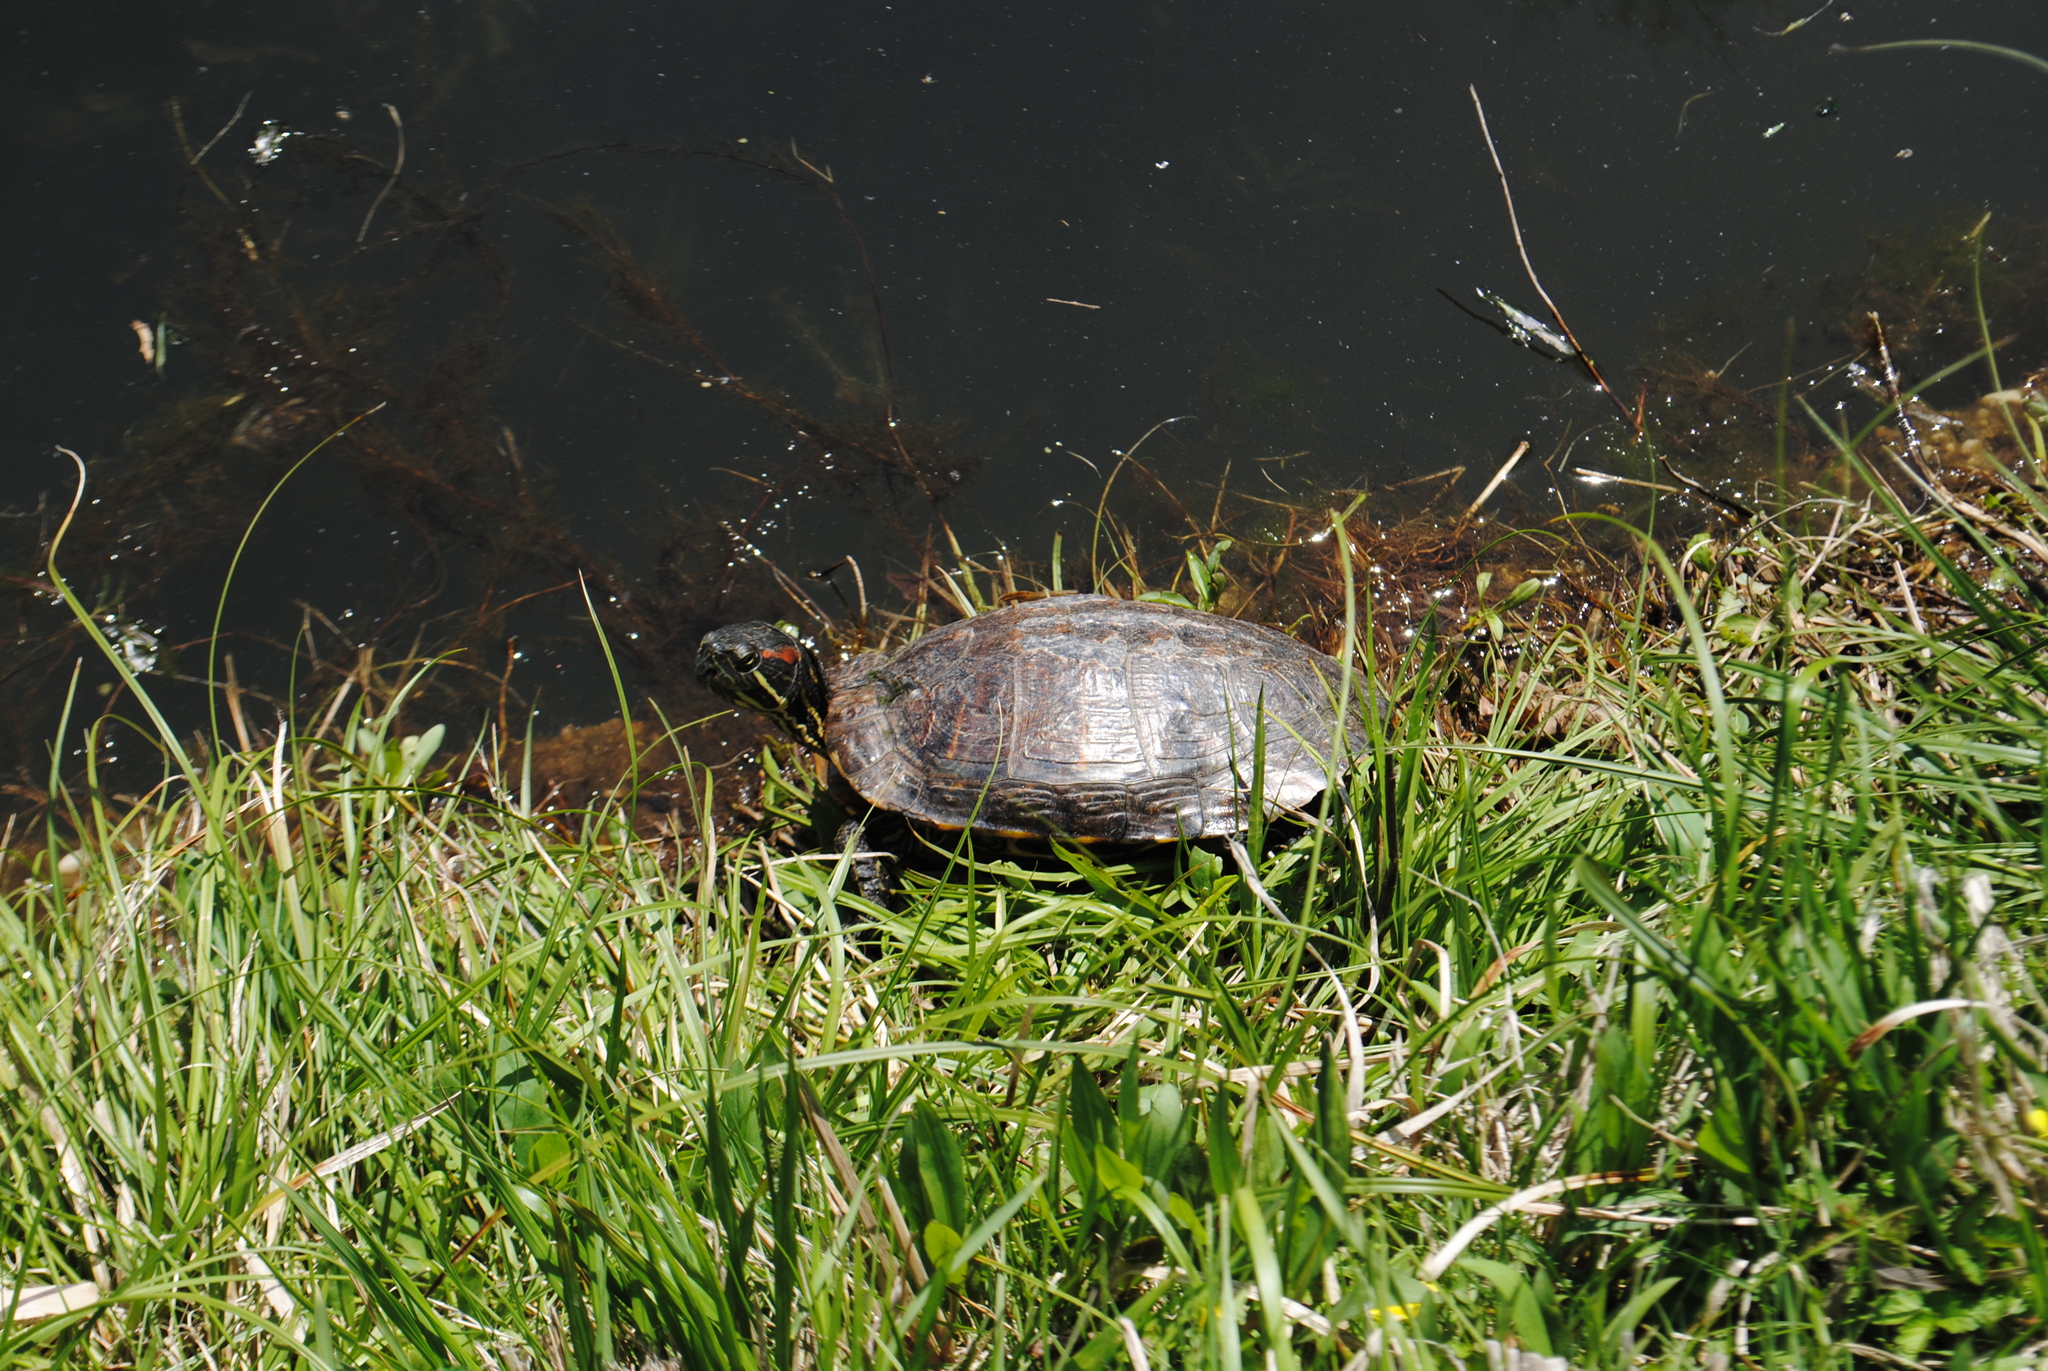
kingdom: Animalia
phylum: Chordata
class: Testudines
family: Emydidae
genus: Trachemys
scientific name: Trachemys scripta
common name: Slider
